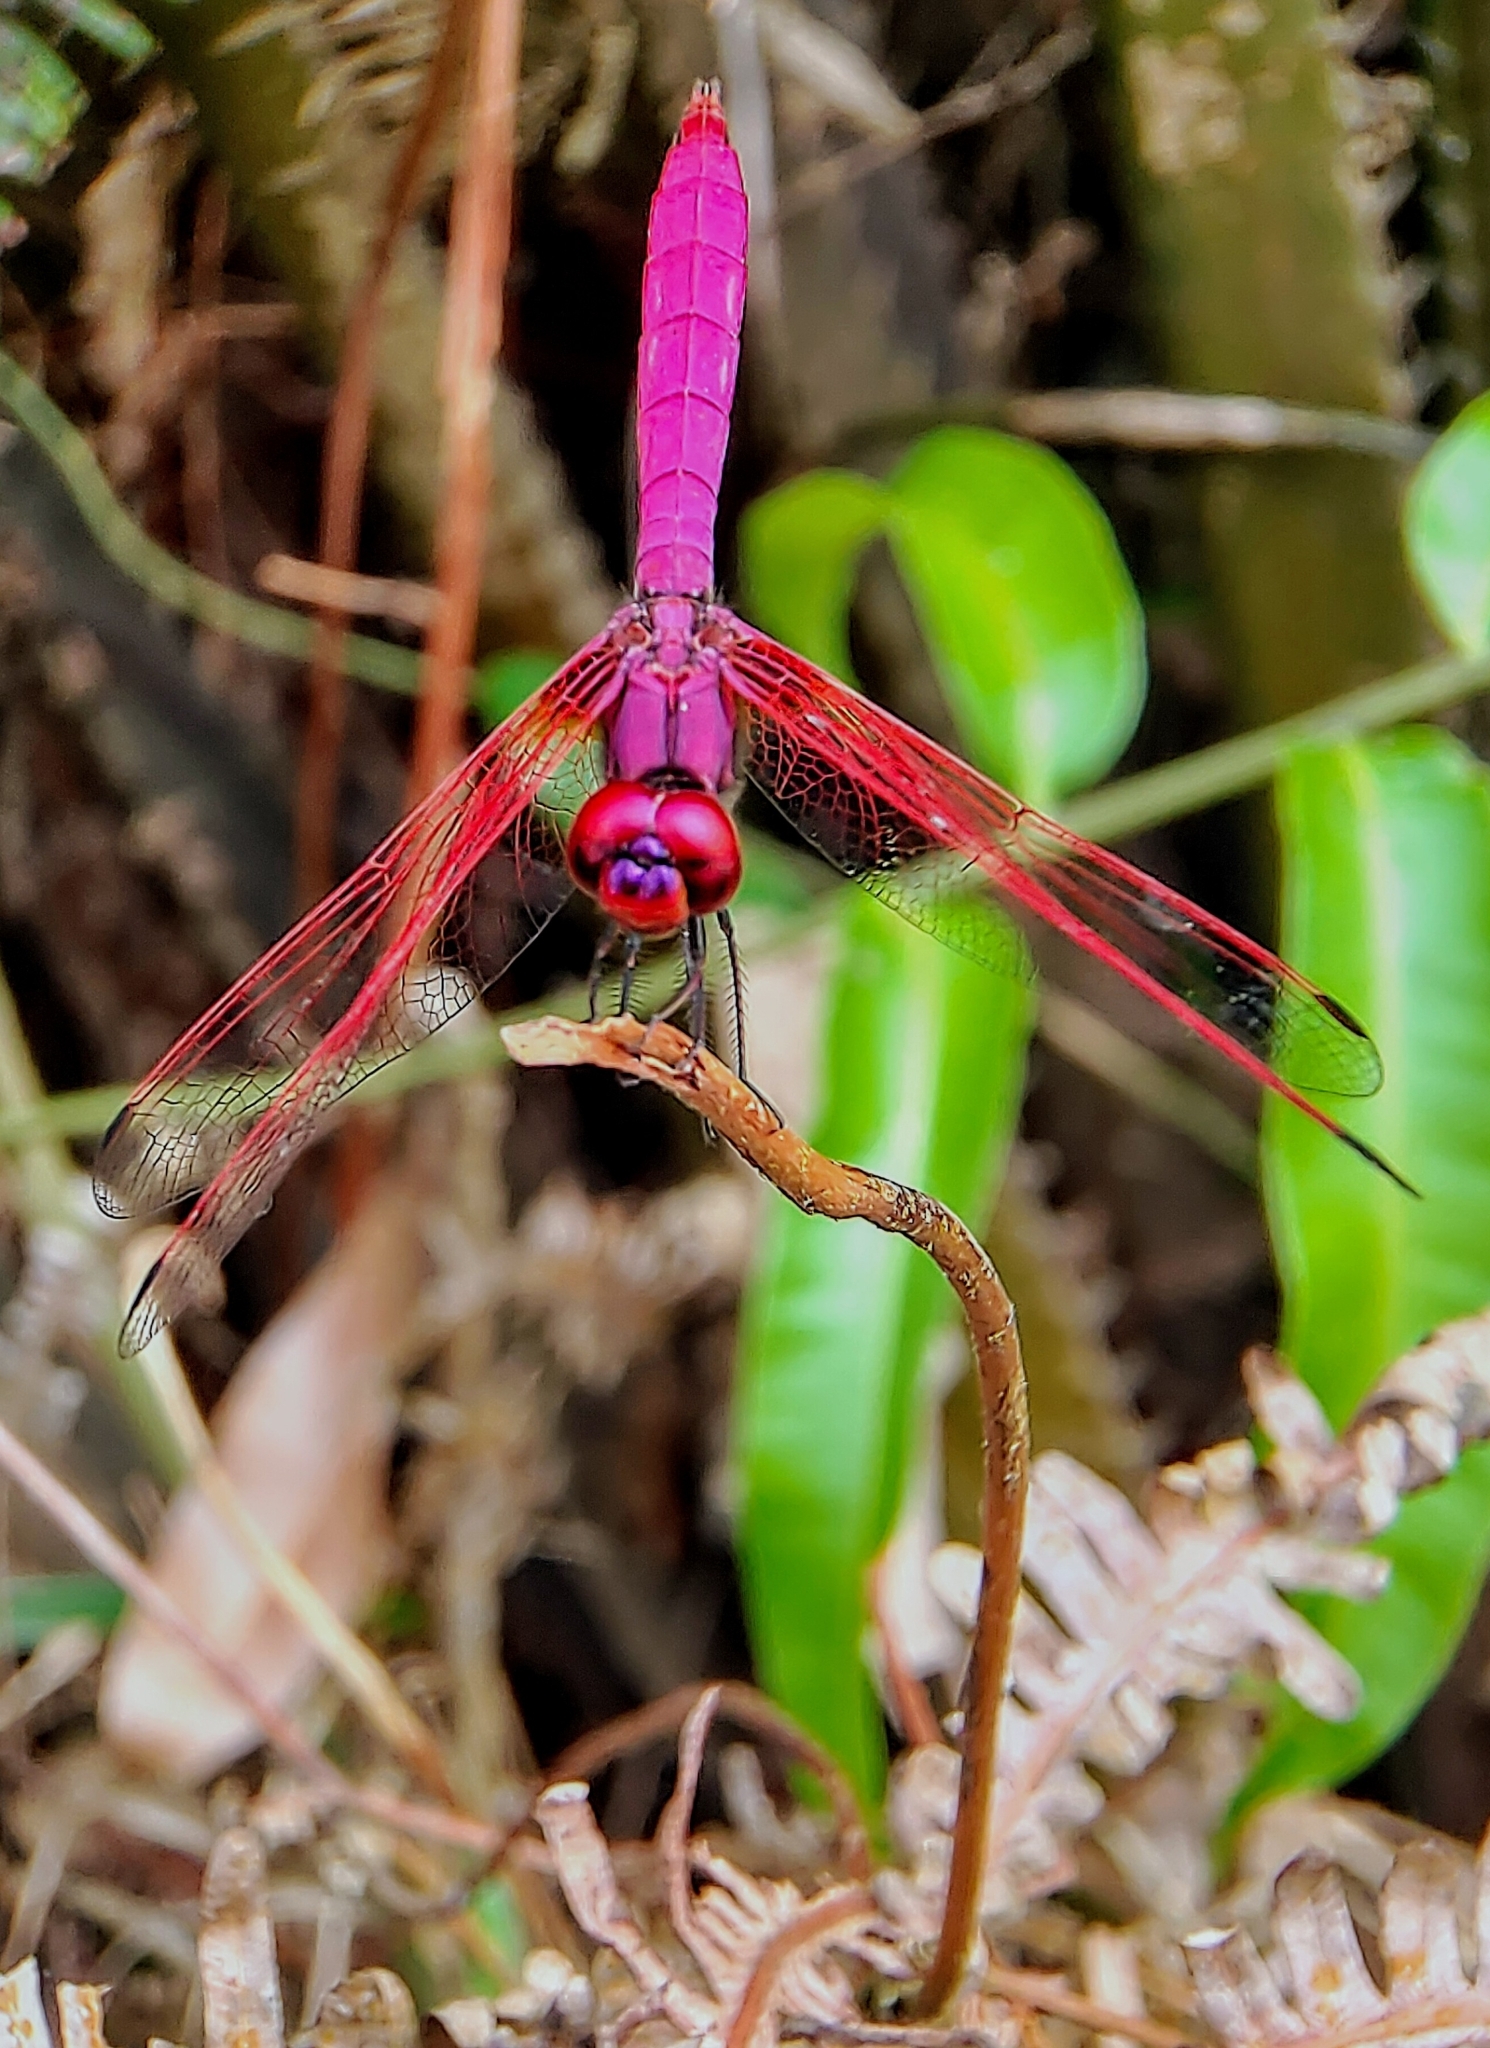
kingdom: Animalia
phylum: Arthropoda
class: Insecta
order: Odonata
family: Libellulidae
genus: Trithemis
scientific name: Trithemis aurora
